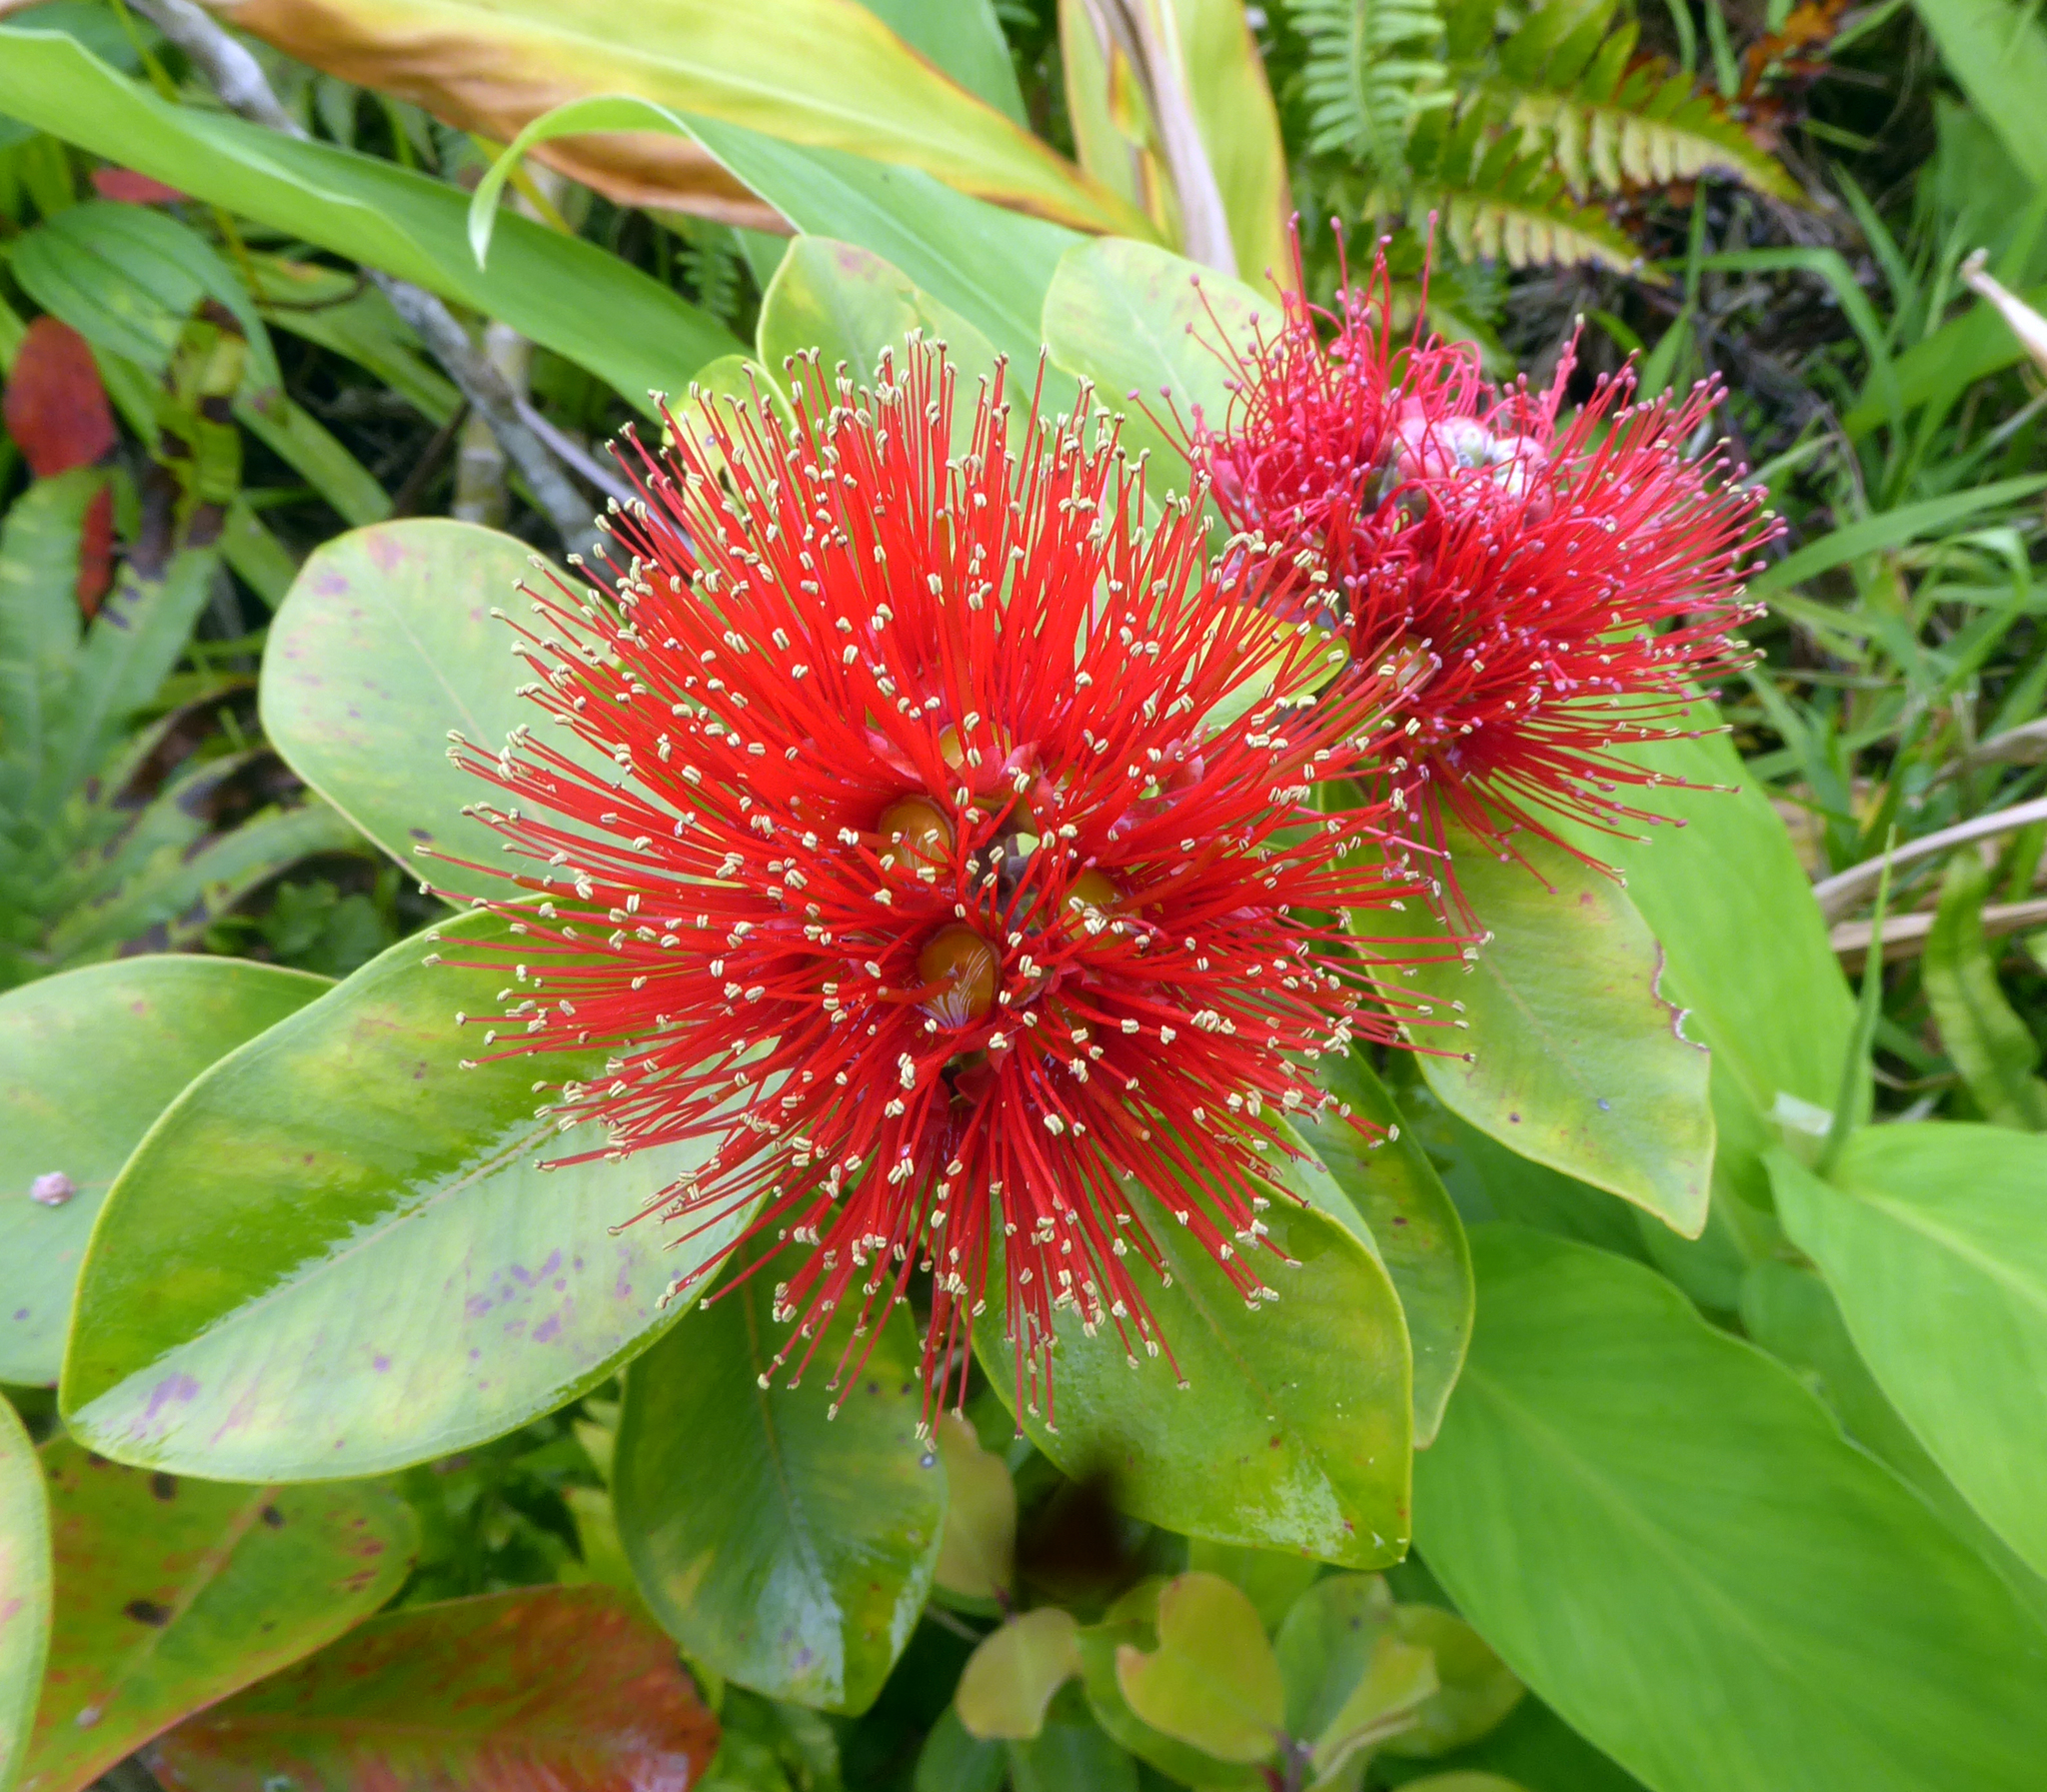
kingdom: Plantae
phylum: Tracheophyta
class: Magnoliopsida
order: Myrtales
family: Myrtaceae
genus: Metrosideros
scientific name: Metrosideros collina
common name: Vunga
